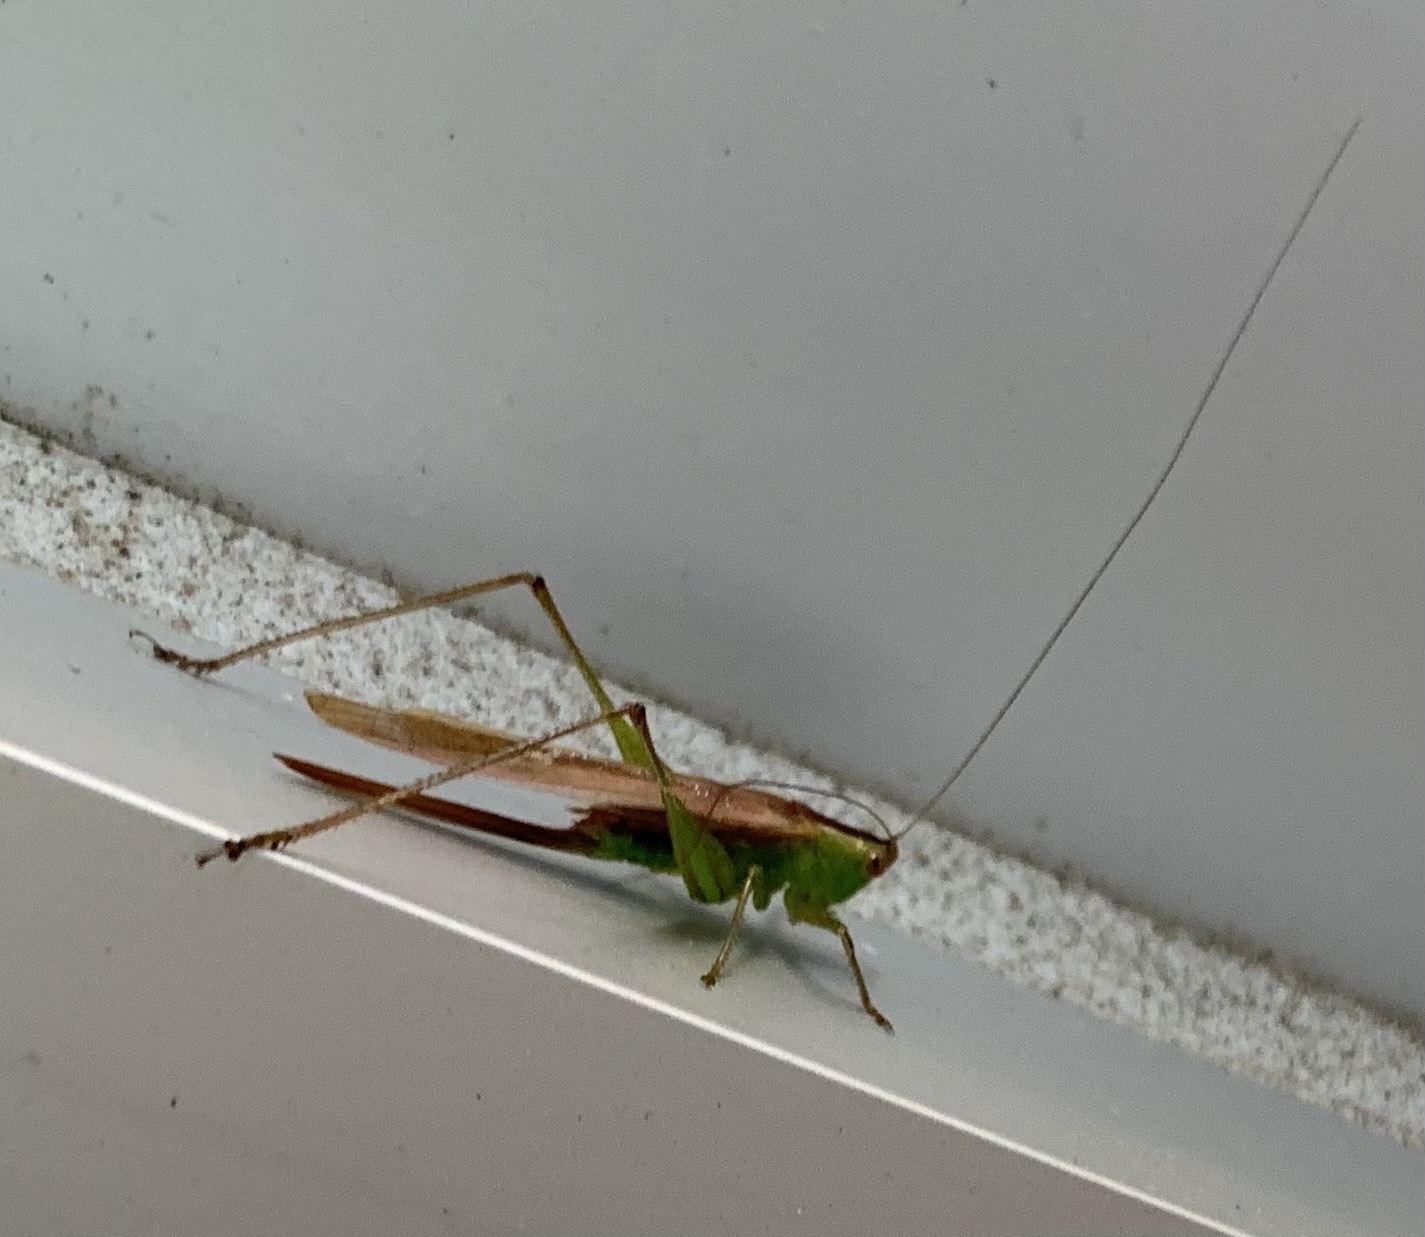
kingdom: Animalia
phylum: Arthropoda
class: Insecta
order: Orthoptera
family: Tettigoniidae
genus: Conocephalus
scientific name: Conocephalus fasciatus
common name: Slender meadow katydid
